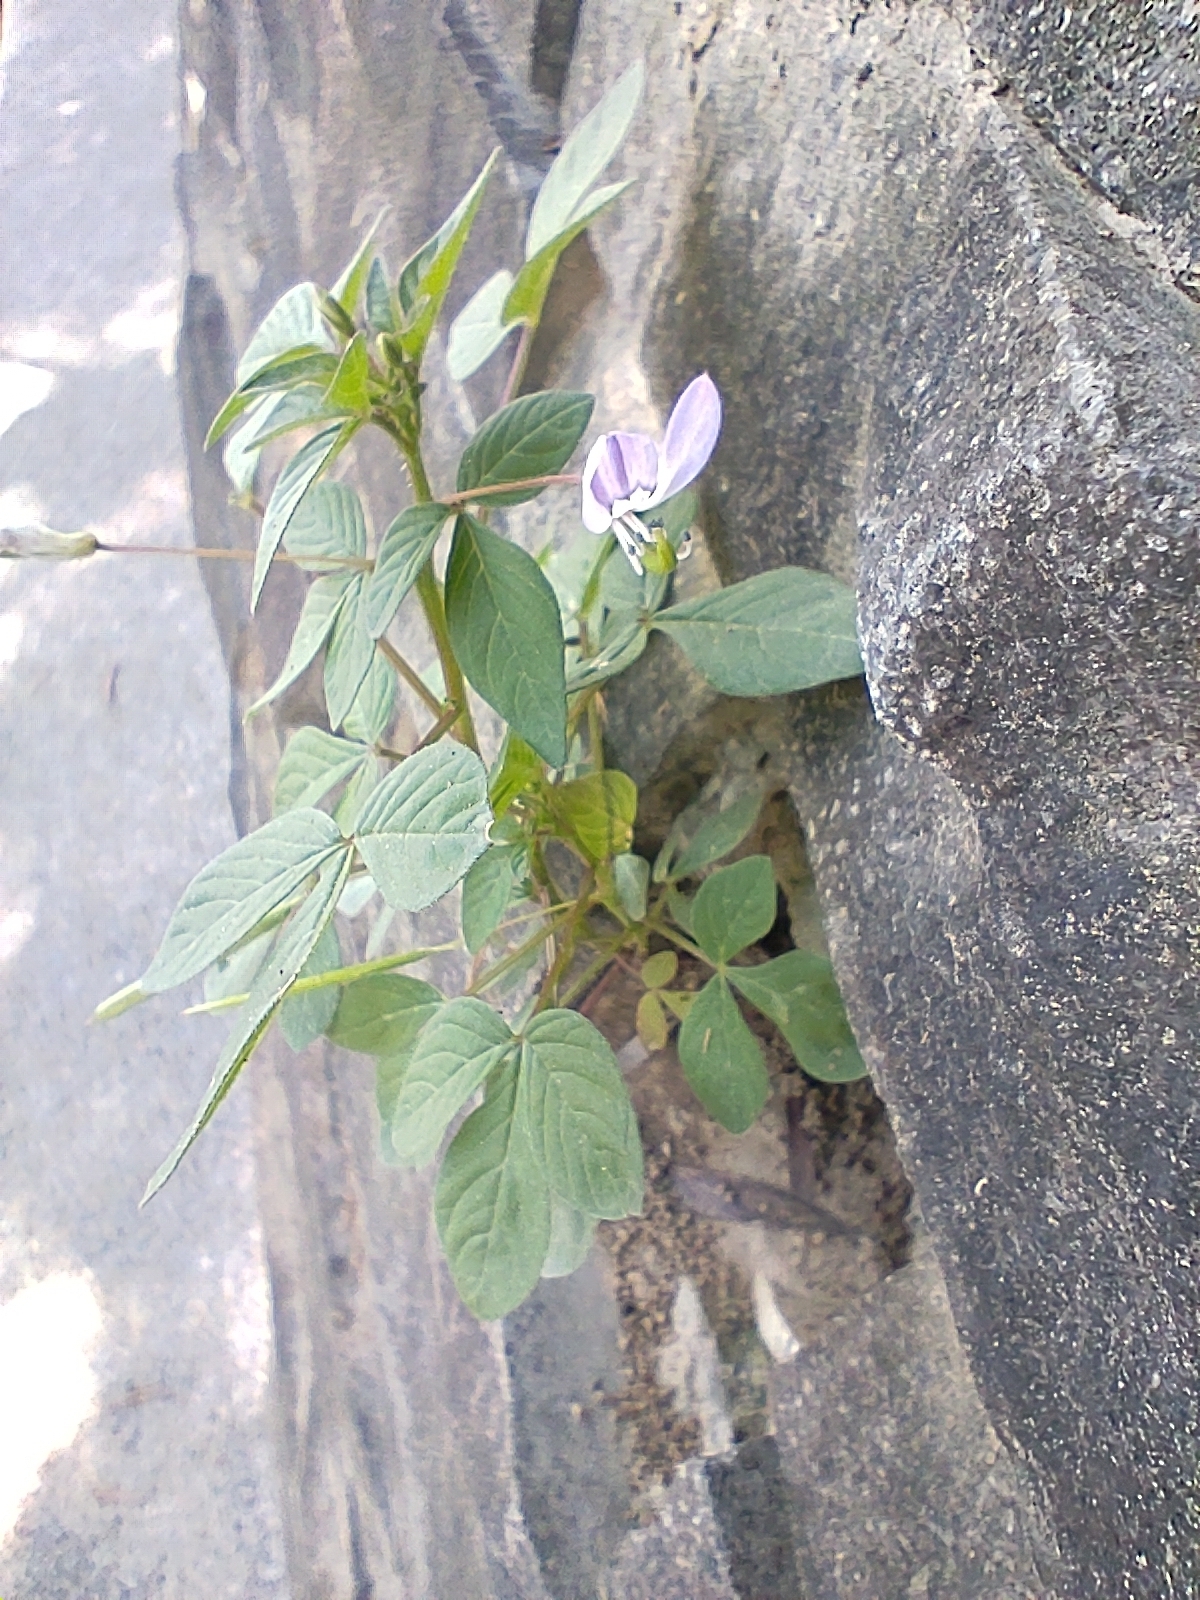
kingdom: Plantae
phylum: Tracheophyta
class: Magnoliopsida
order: Brassicales
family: Cleomaceae
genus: Sieruela
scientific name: Sieruela rutidosperma
